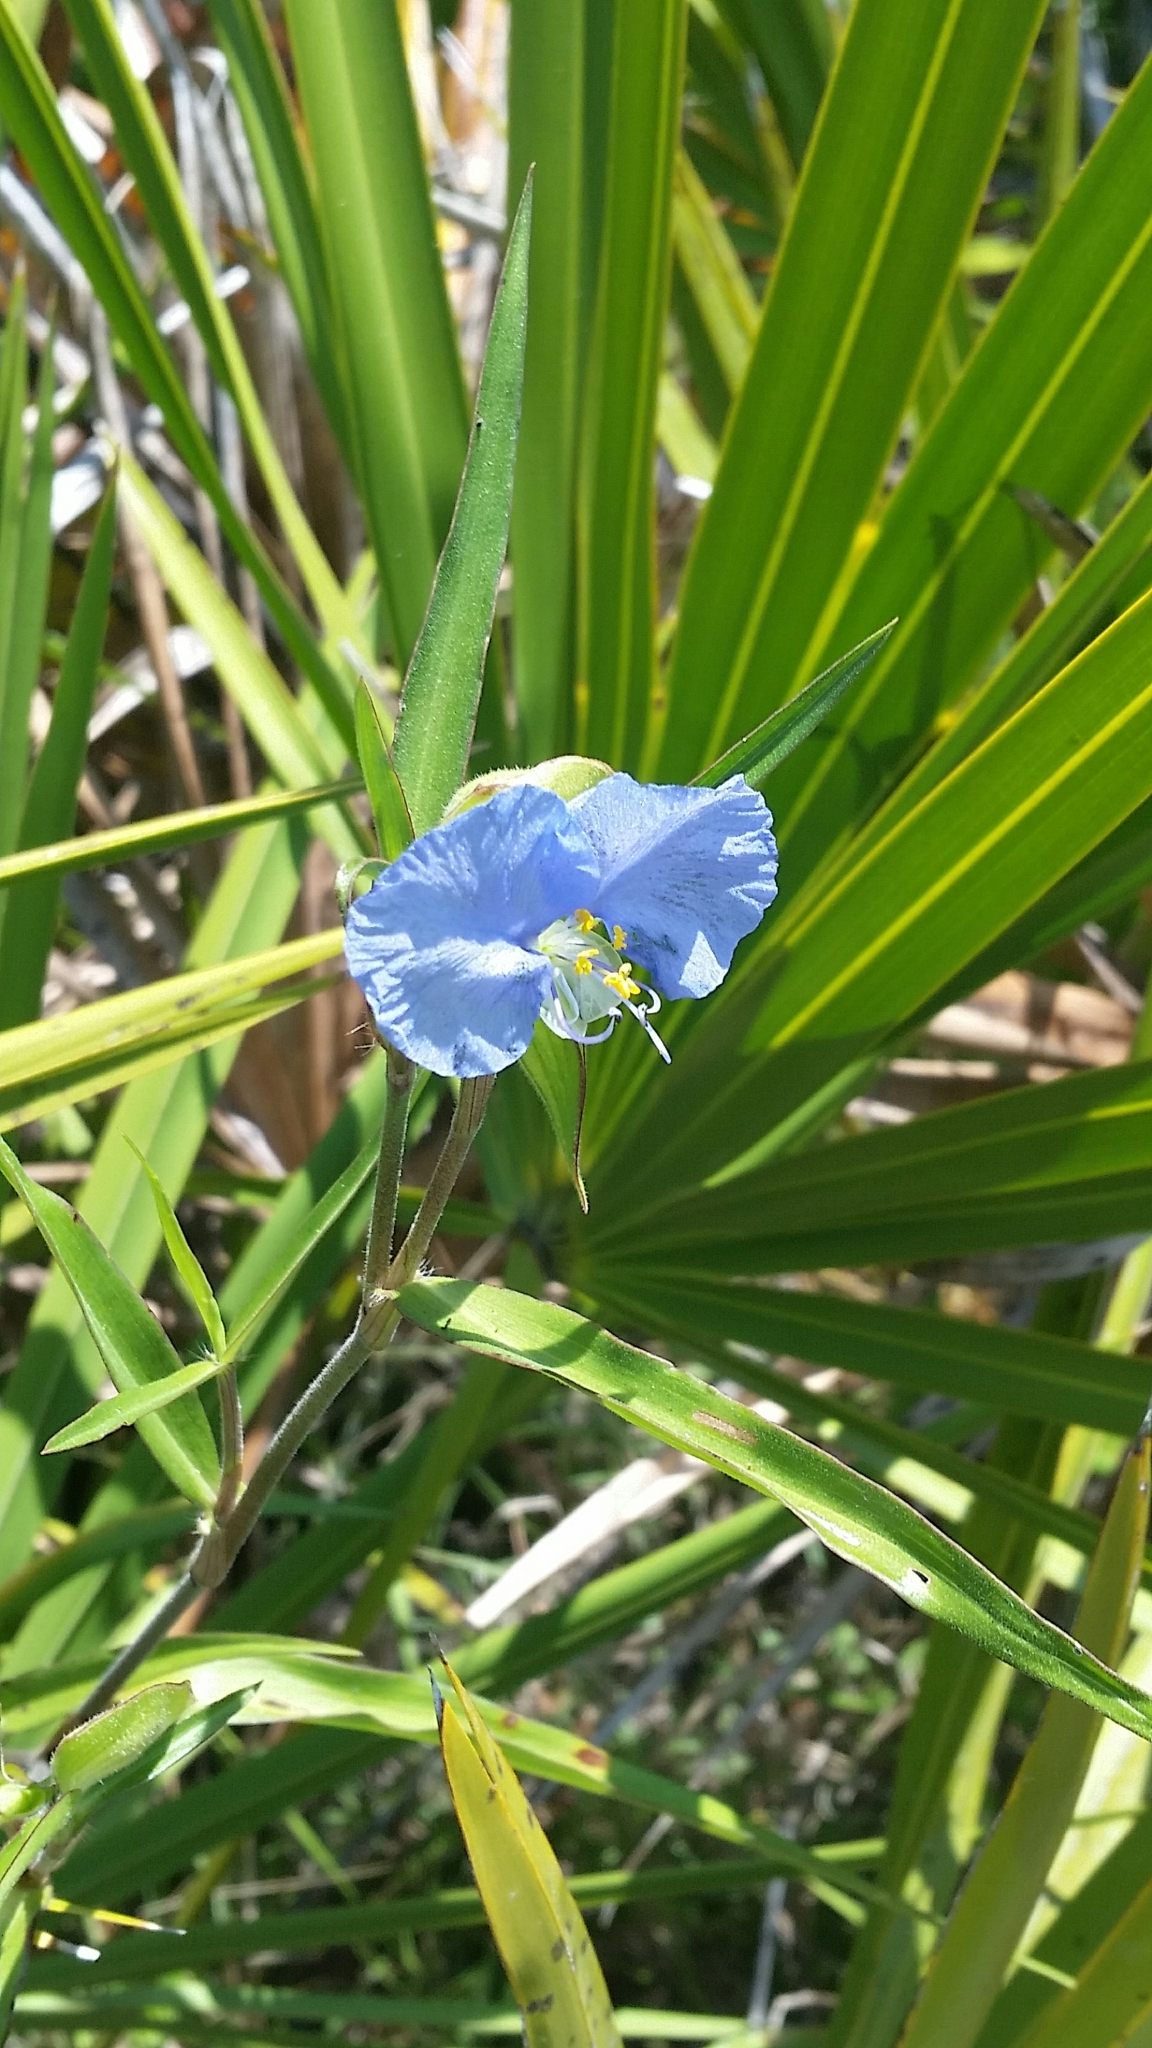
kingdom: Plantae
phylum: Tracheophyta
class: Liliopsida
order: Commelinales
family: Commelinaceae
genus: Commelina
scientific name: Commelina erecta
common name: Blousel blommetjie
